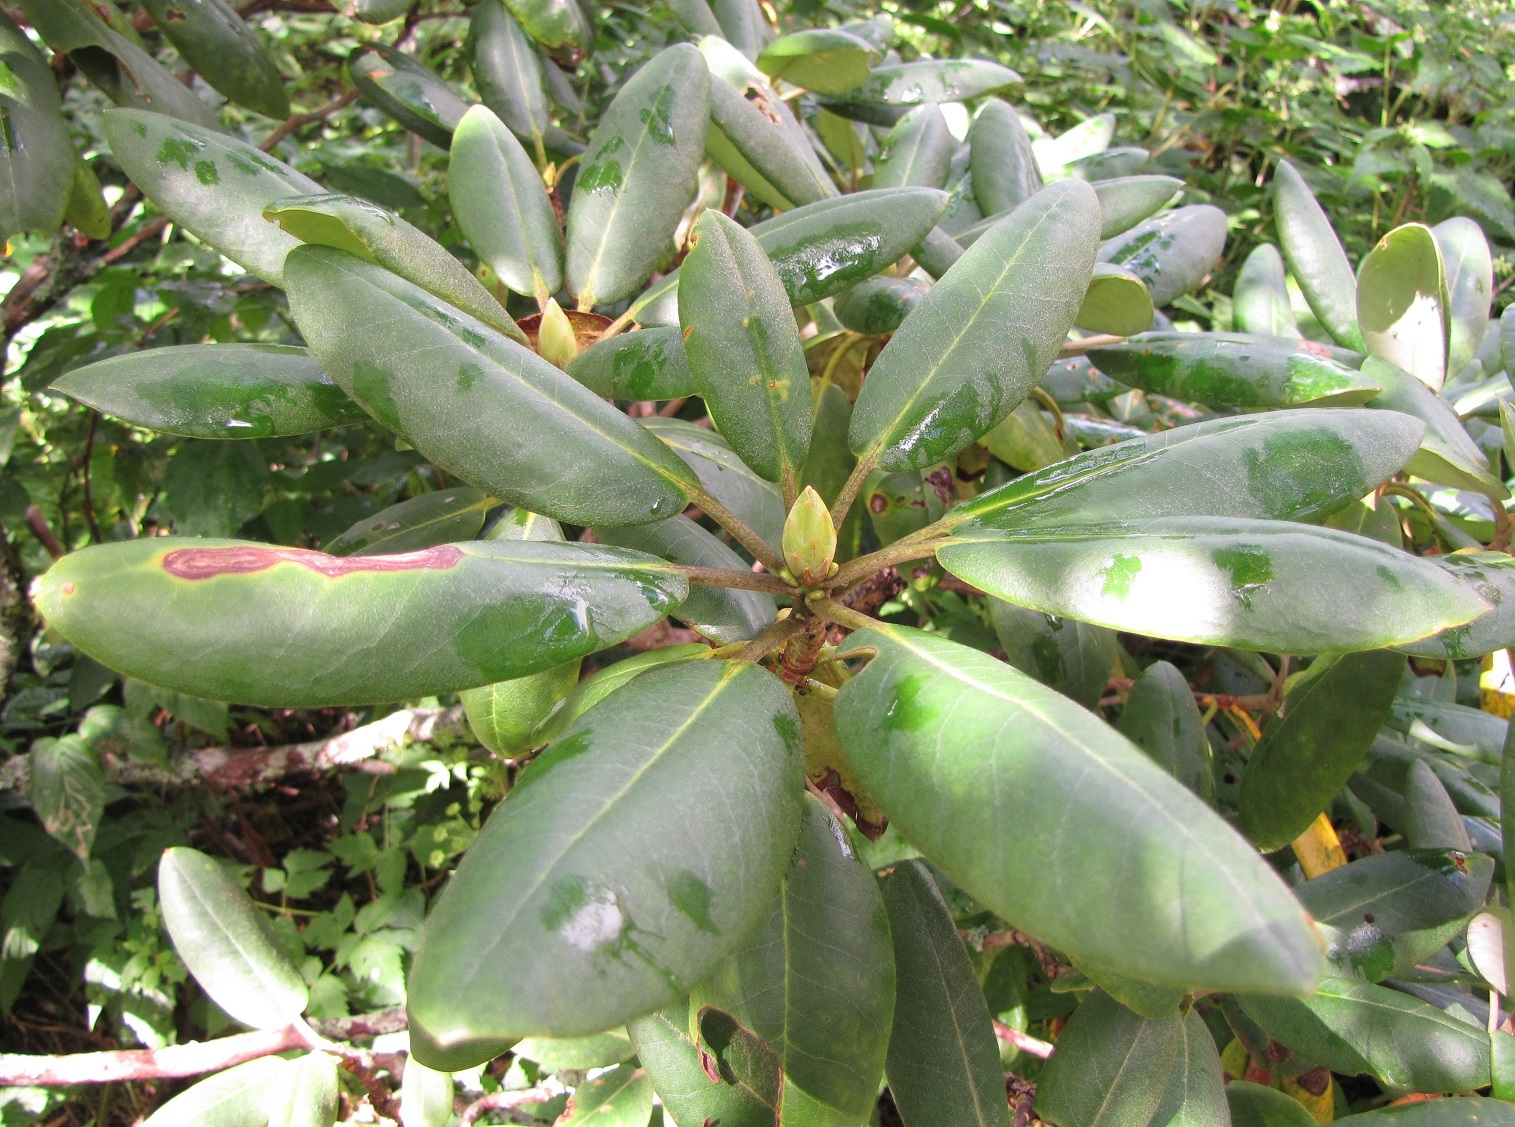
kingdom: Plantae
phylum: Tracheophyta
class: Magnoliopsida
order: Ericales
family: Ericaceae
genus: Rhododendron
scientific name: Rhododendron catawbiense
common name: Catawba rhododendron
